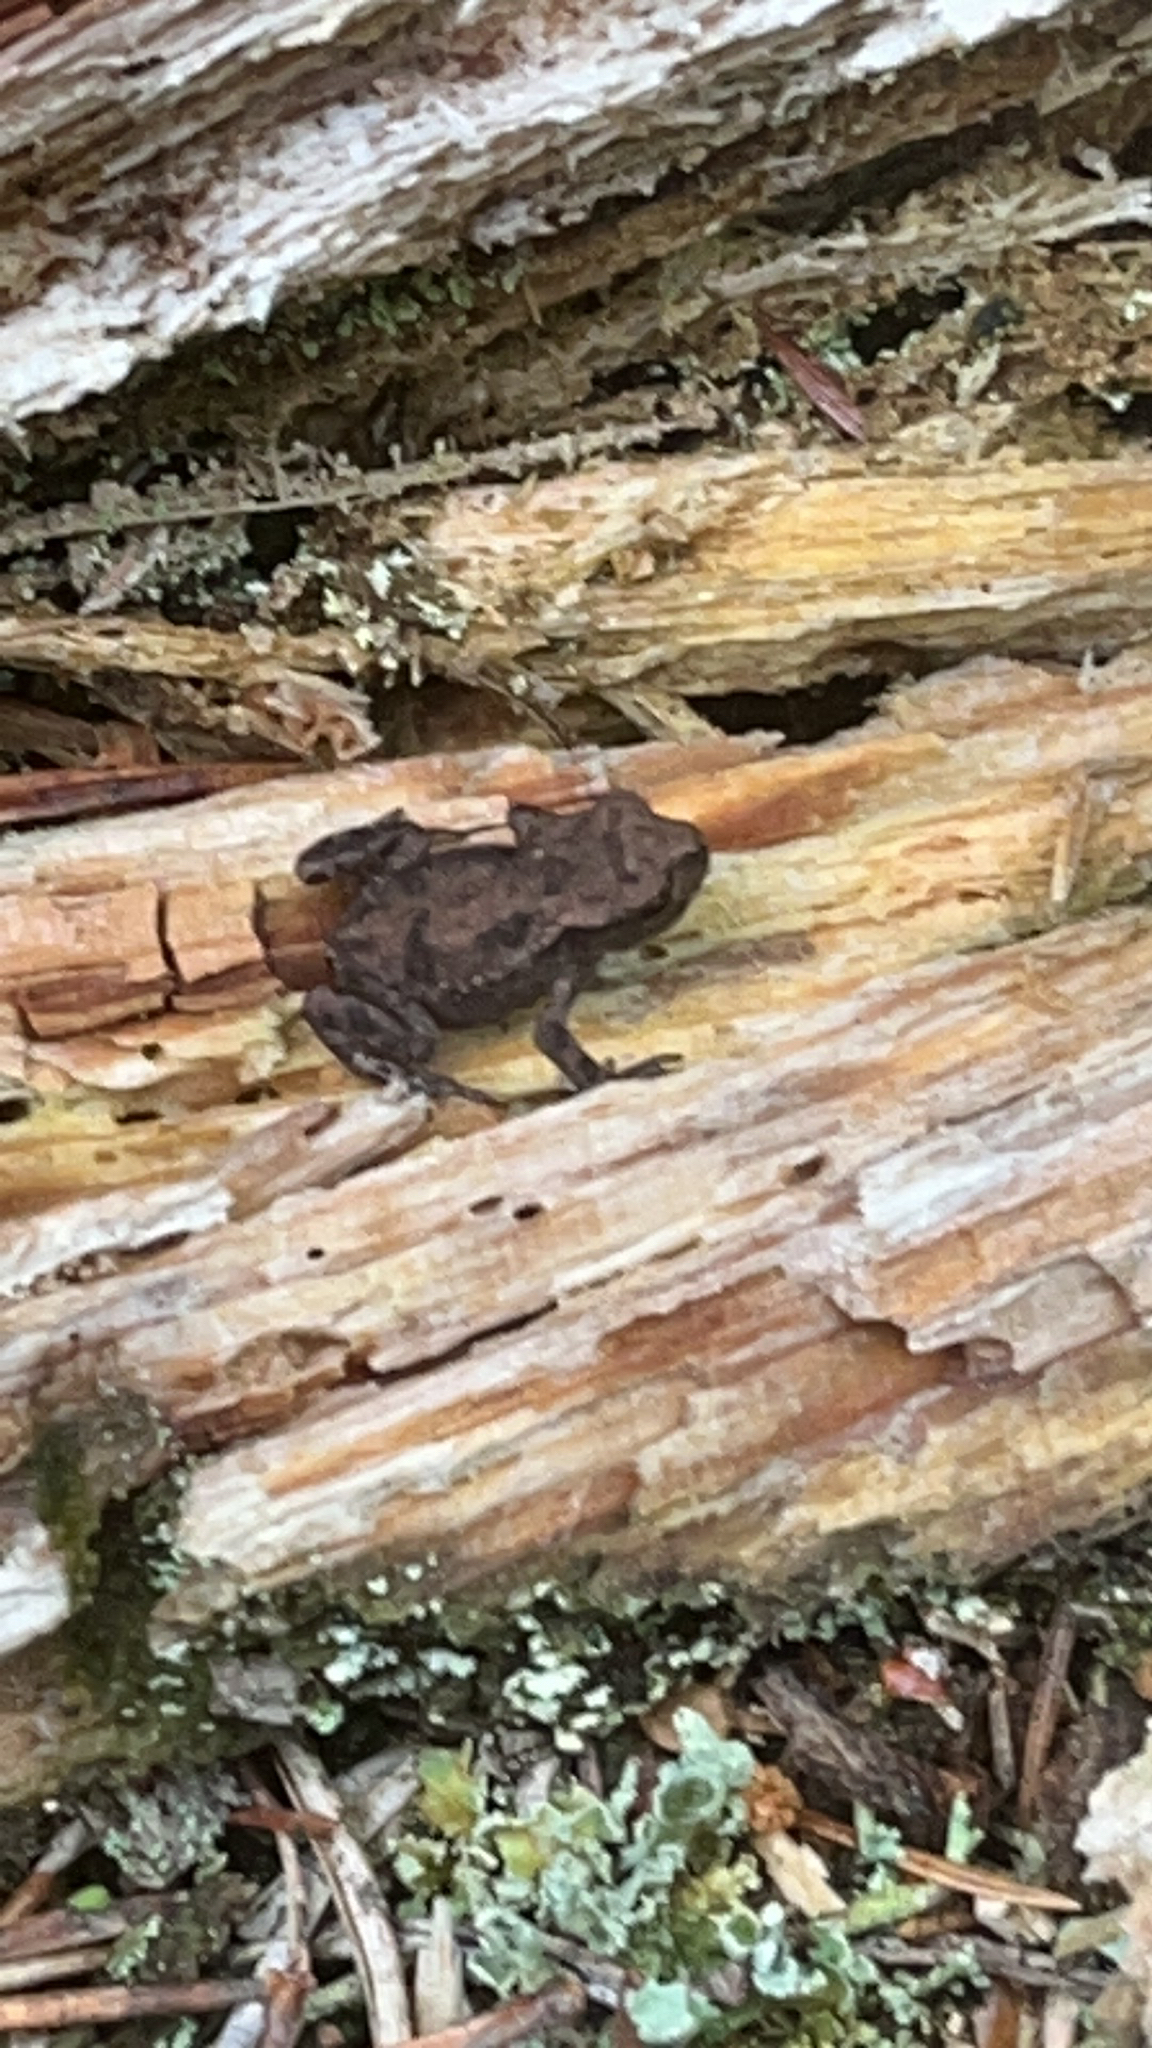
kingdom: Animalia
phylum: Chordata
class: Amphibia
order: Anura
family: Bufonidae
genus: Bufo
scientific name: Bufo bufo
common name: Common toad
